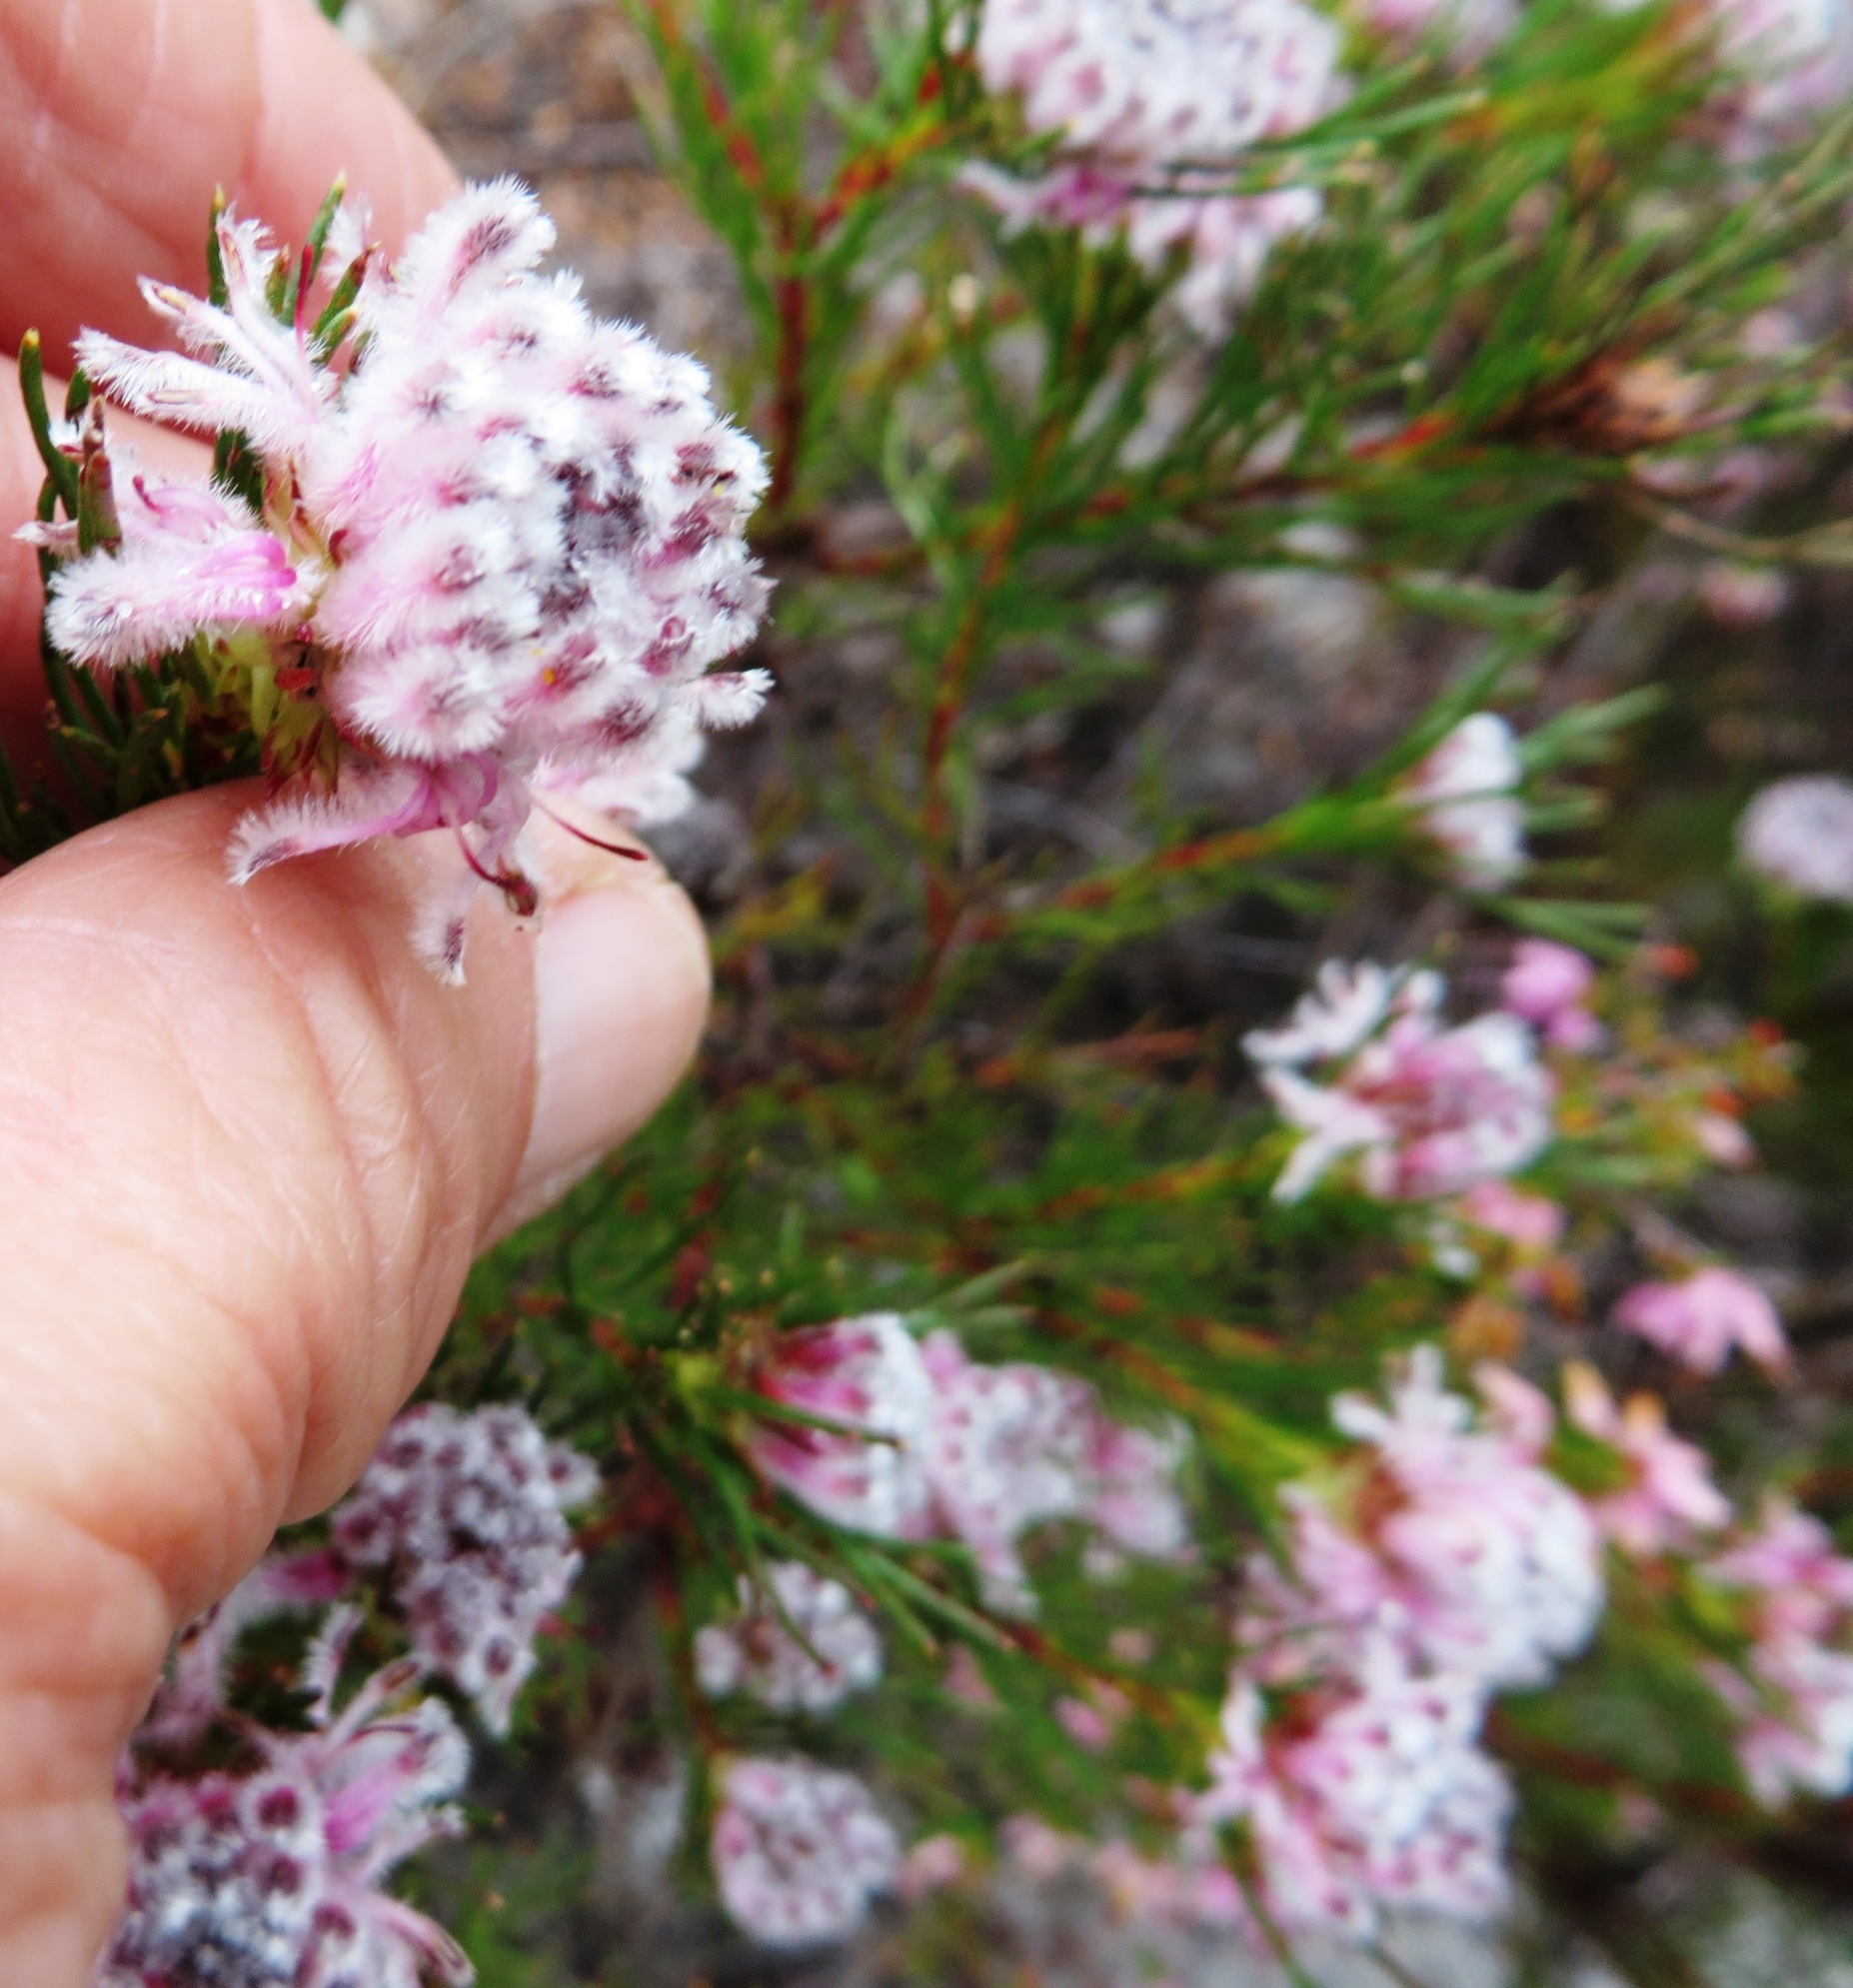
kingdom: Plantae
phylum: Tracheophyta
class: Magnoliopsida
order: Proteales
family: Proteaceae
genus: Serruria
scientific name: Serruria nervosa
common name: Fluted spiderhead
